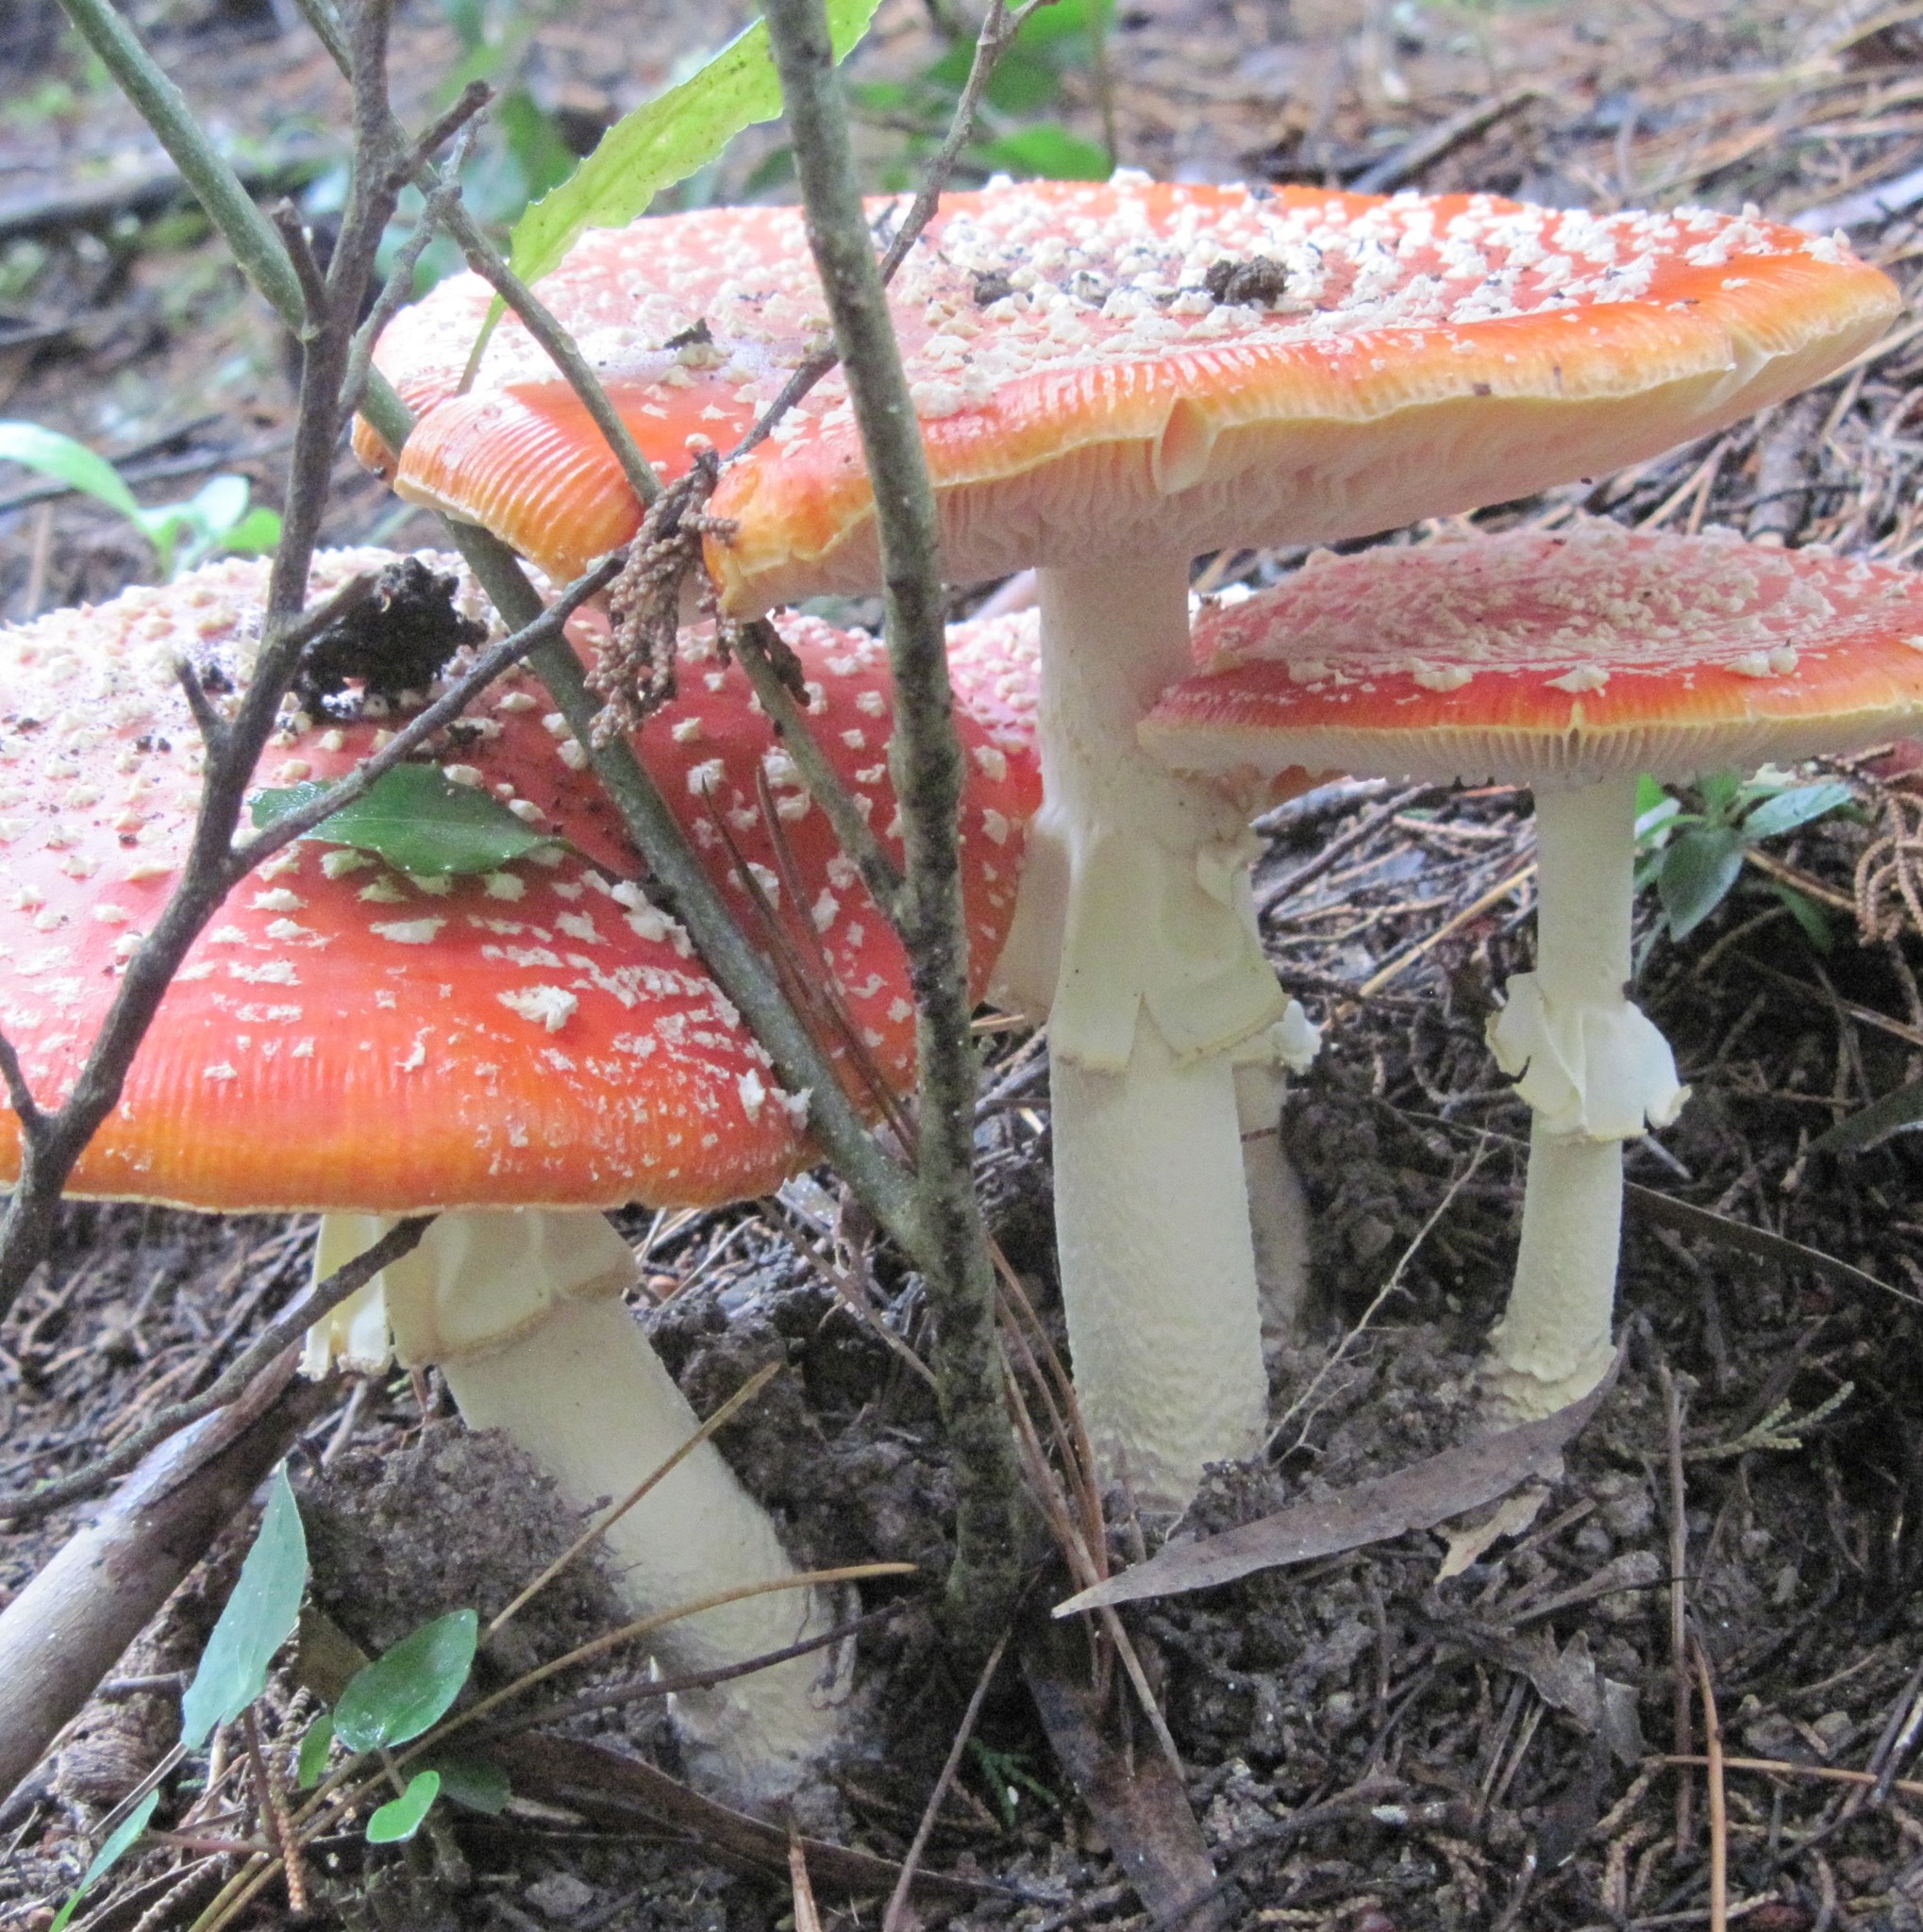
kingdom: Fungi
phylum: Basidiomycota
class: Agaricomycetes
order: Agaricales
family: Amanitaceae
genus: Amanita
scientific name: Amanita muscaria
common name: Fly agaric
